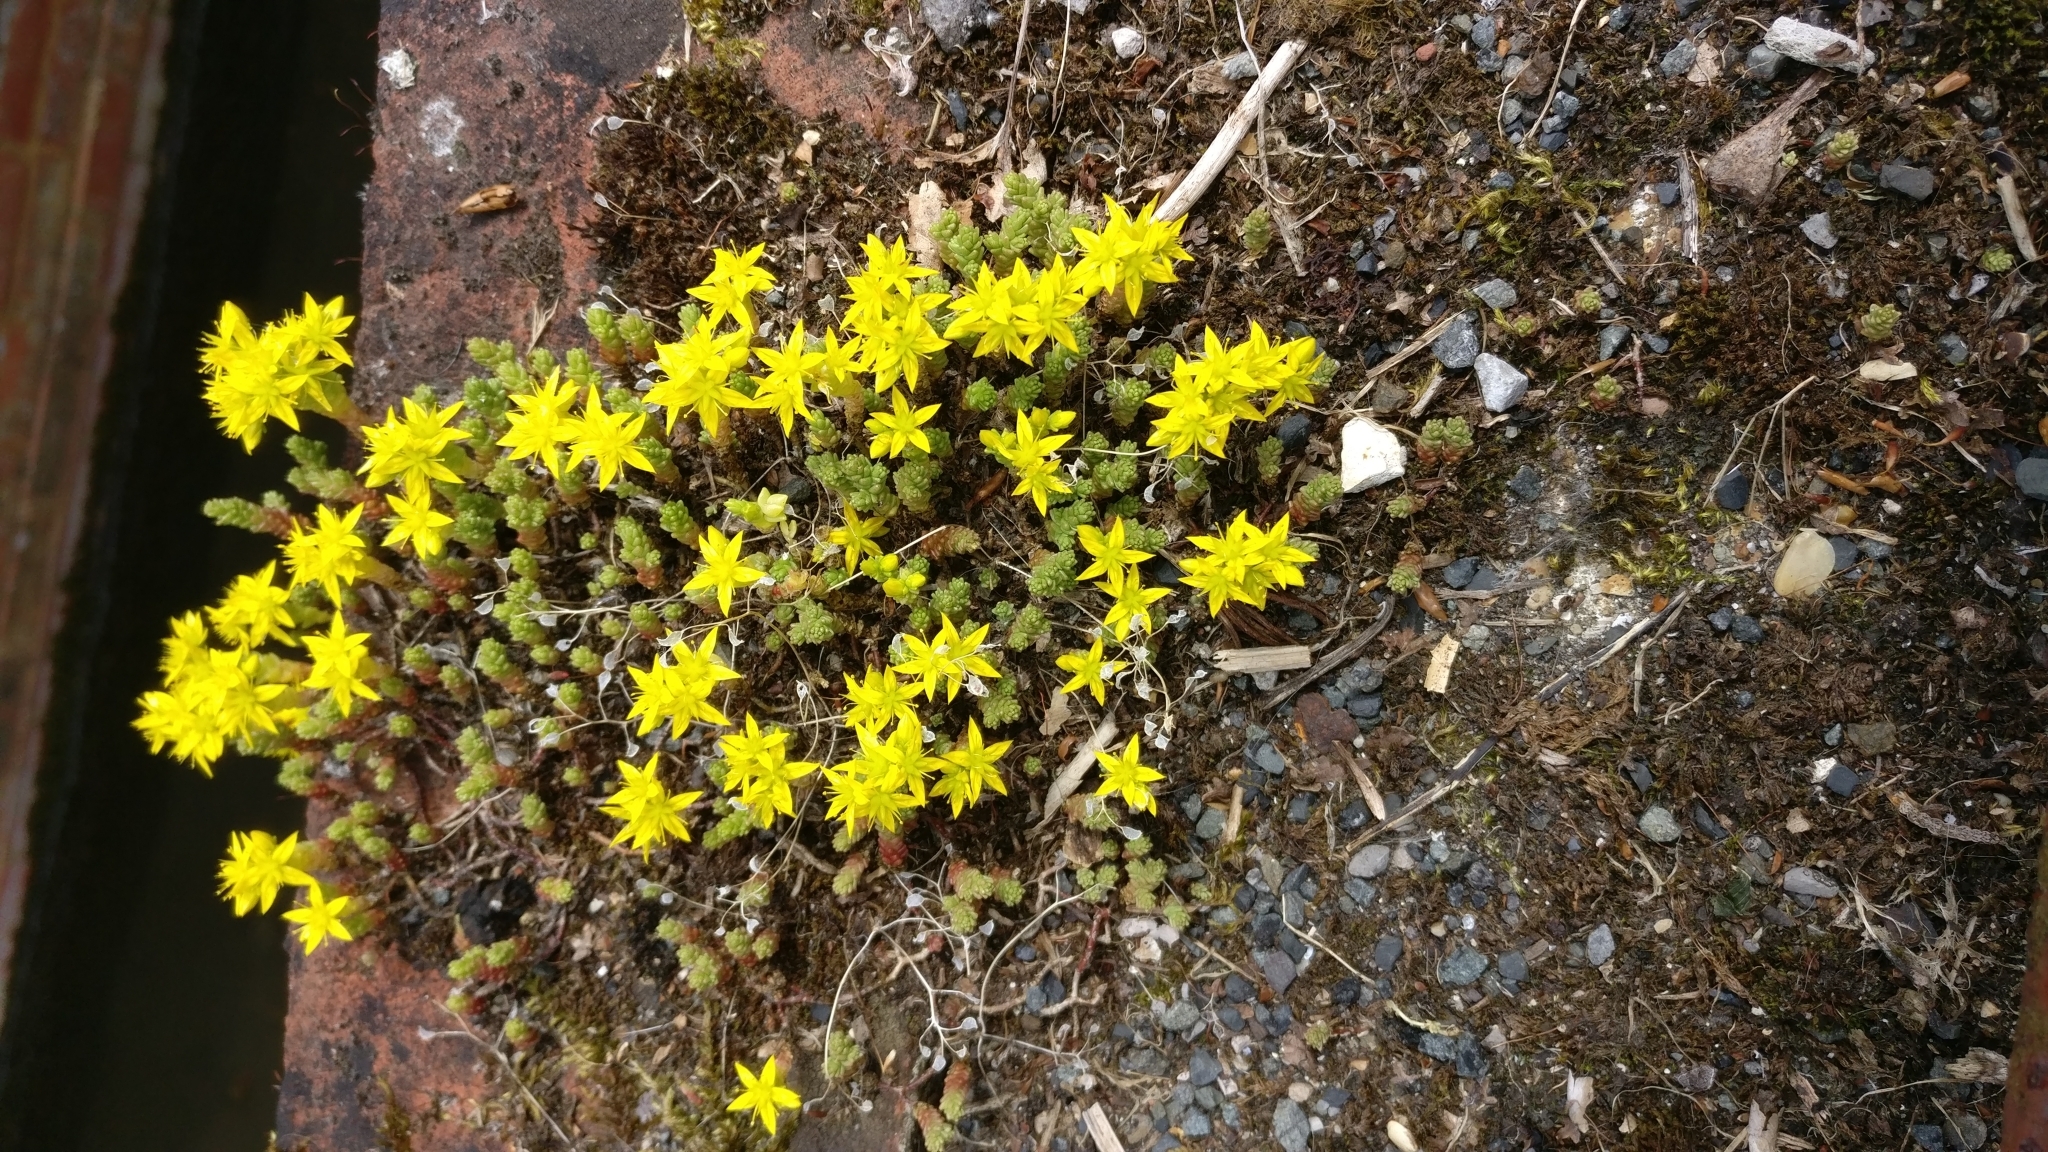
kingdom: Plantae
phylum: Tracheophyta
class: Magnoliopsida
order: Saxifragales
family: Crassulaceae
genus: Sedum
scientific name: Sedum acre
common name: Biting stonecrop
